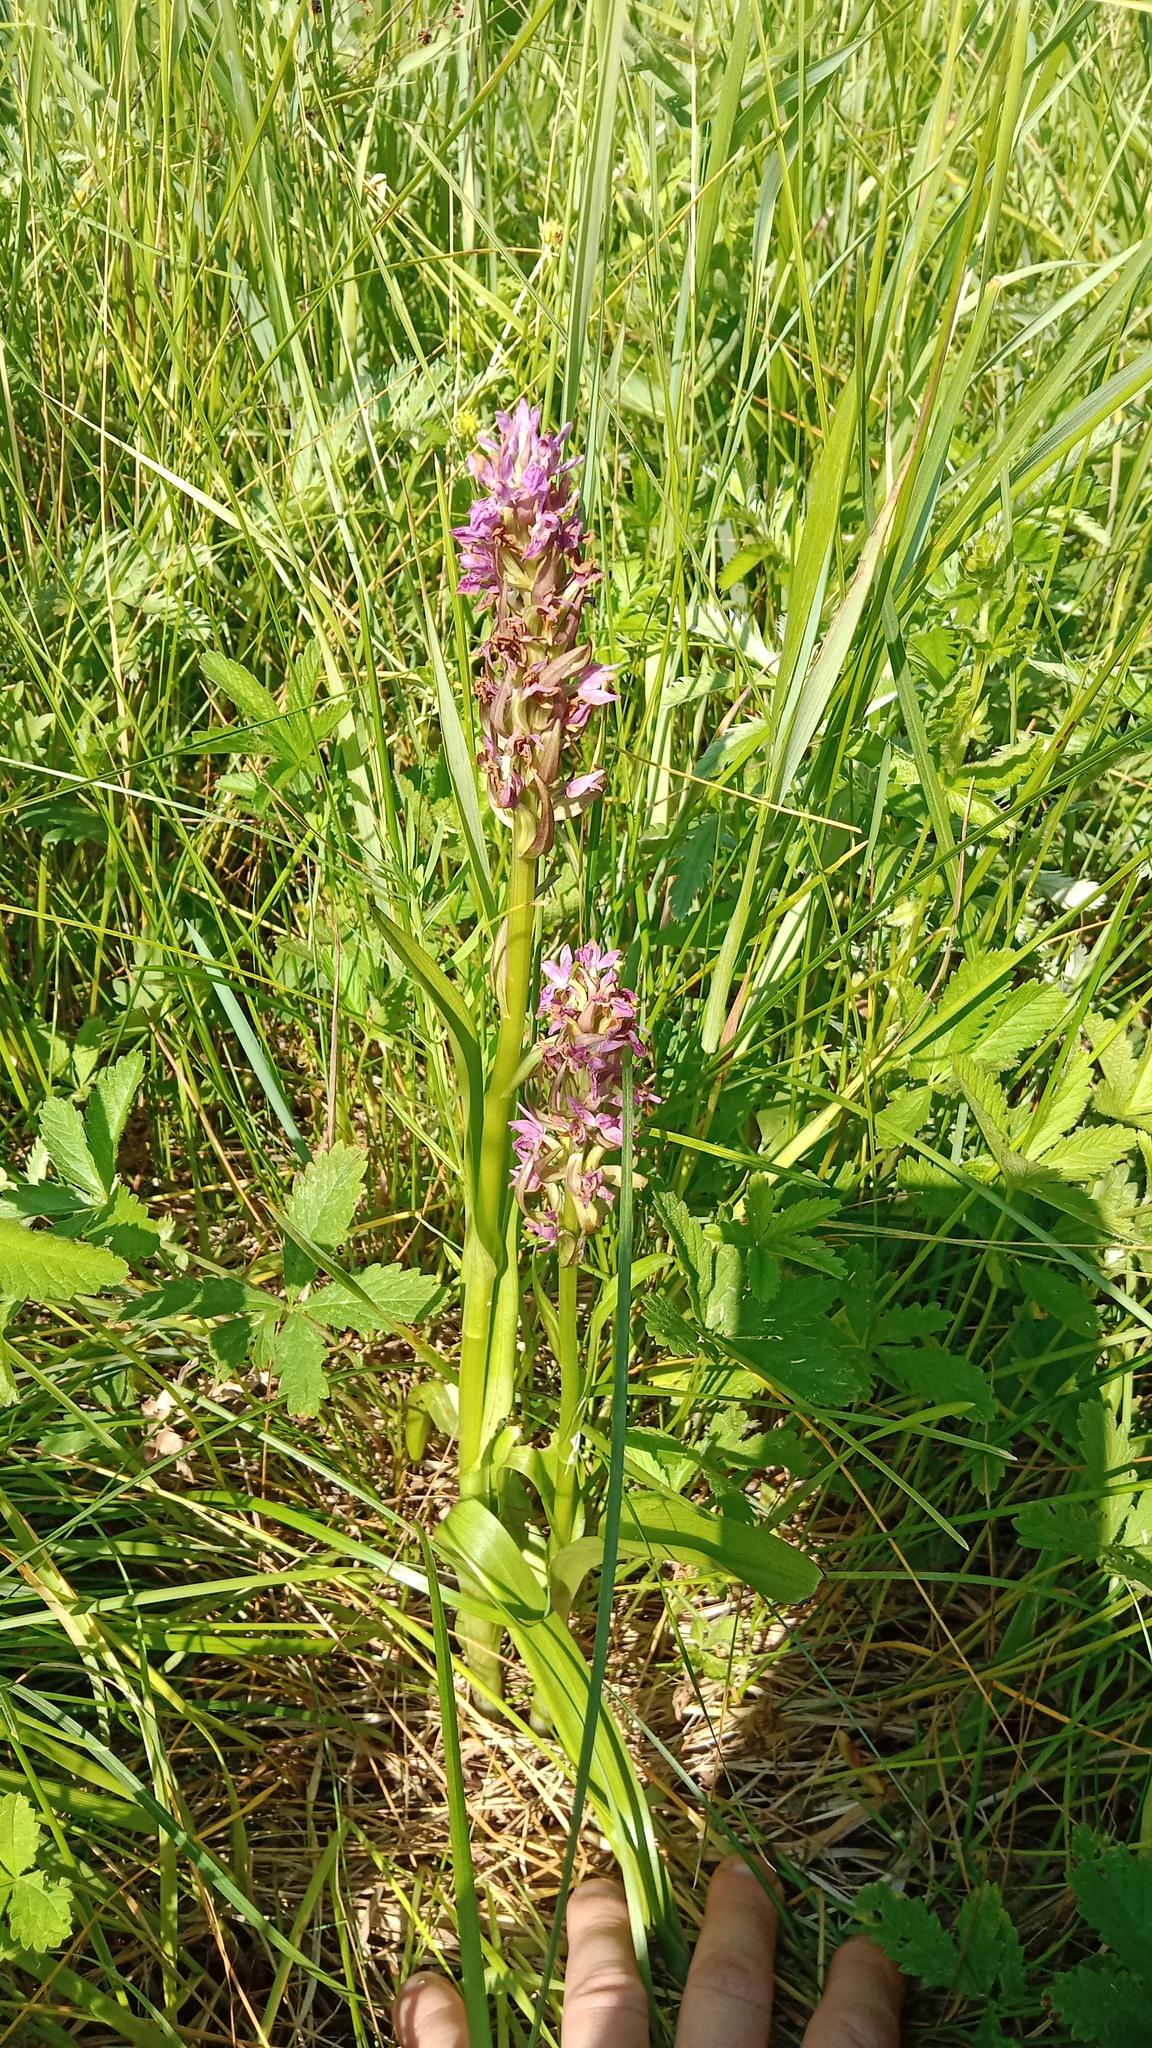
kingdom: Plantae
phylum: Tracheophyta
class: Liliopsida
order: Asparagales
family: Orchidaceae
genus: Dactylorhiza
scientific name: Dactylorhiza incarnata
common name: Early marsh-orchid
